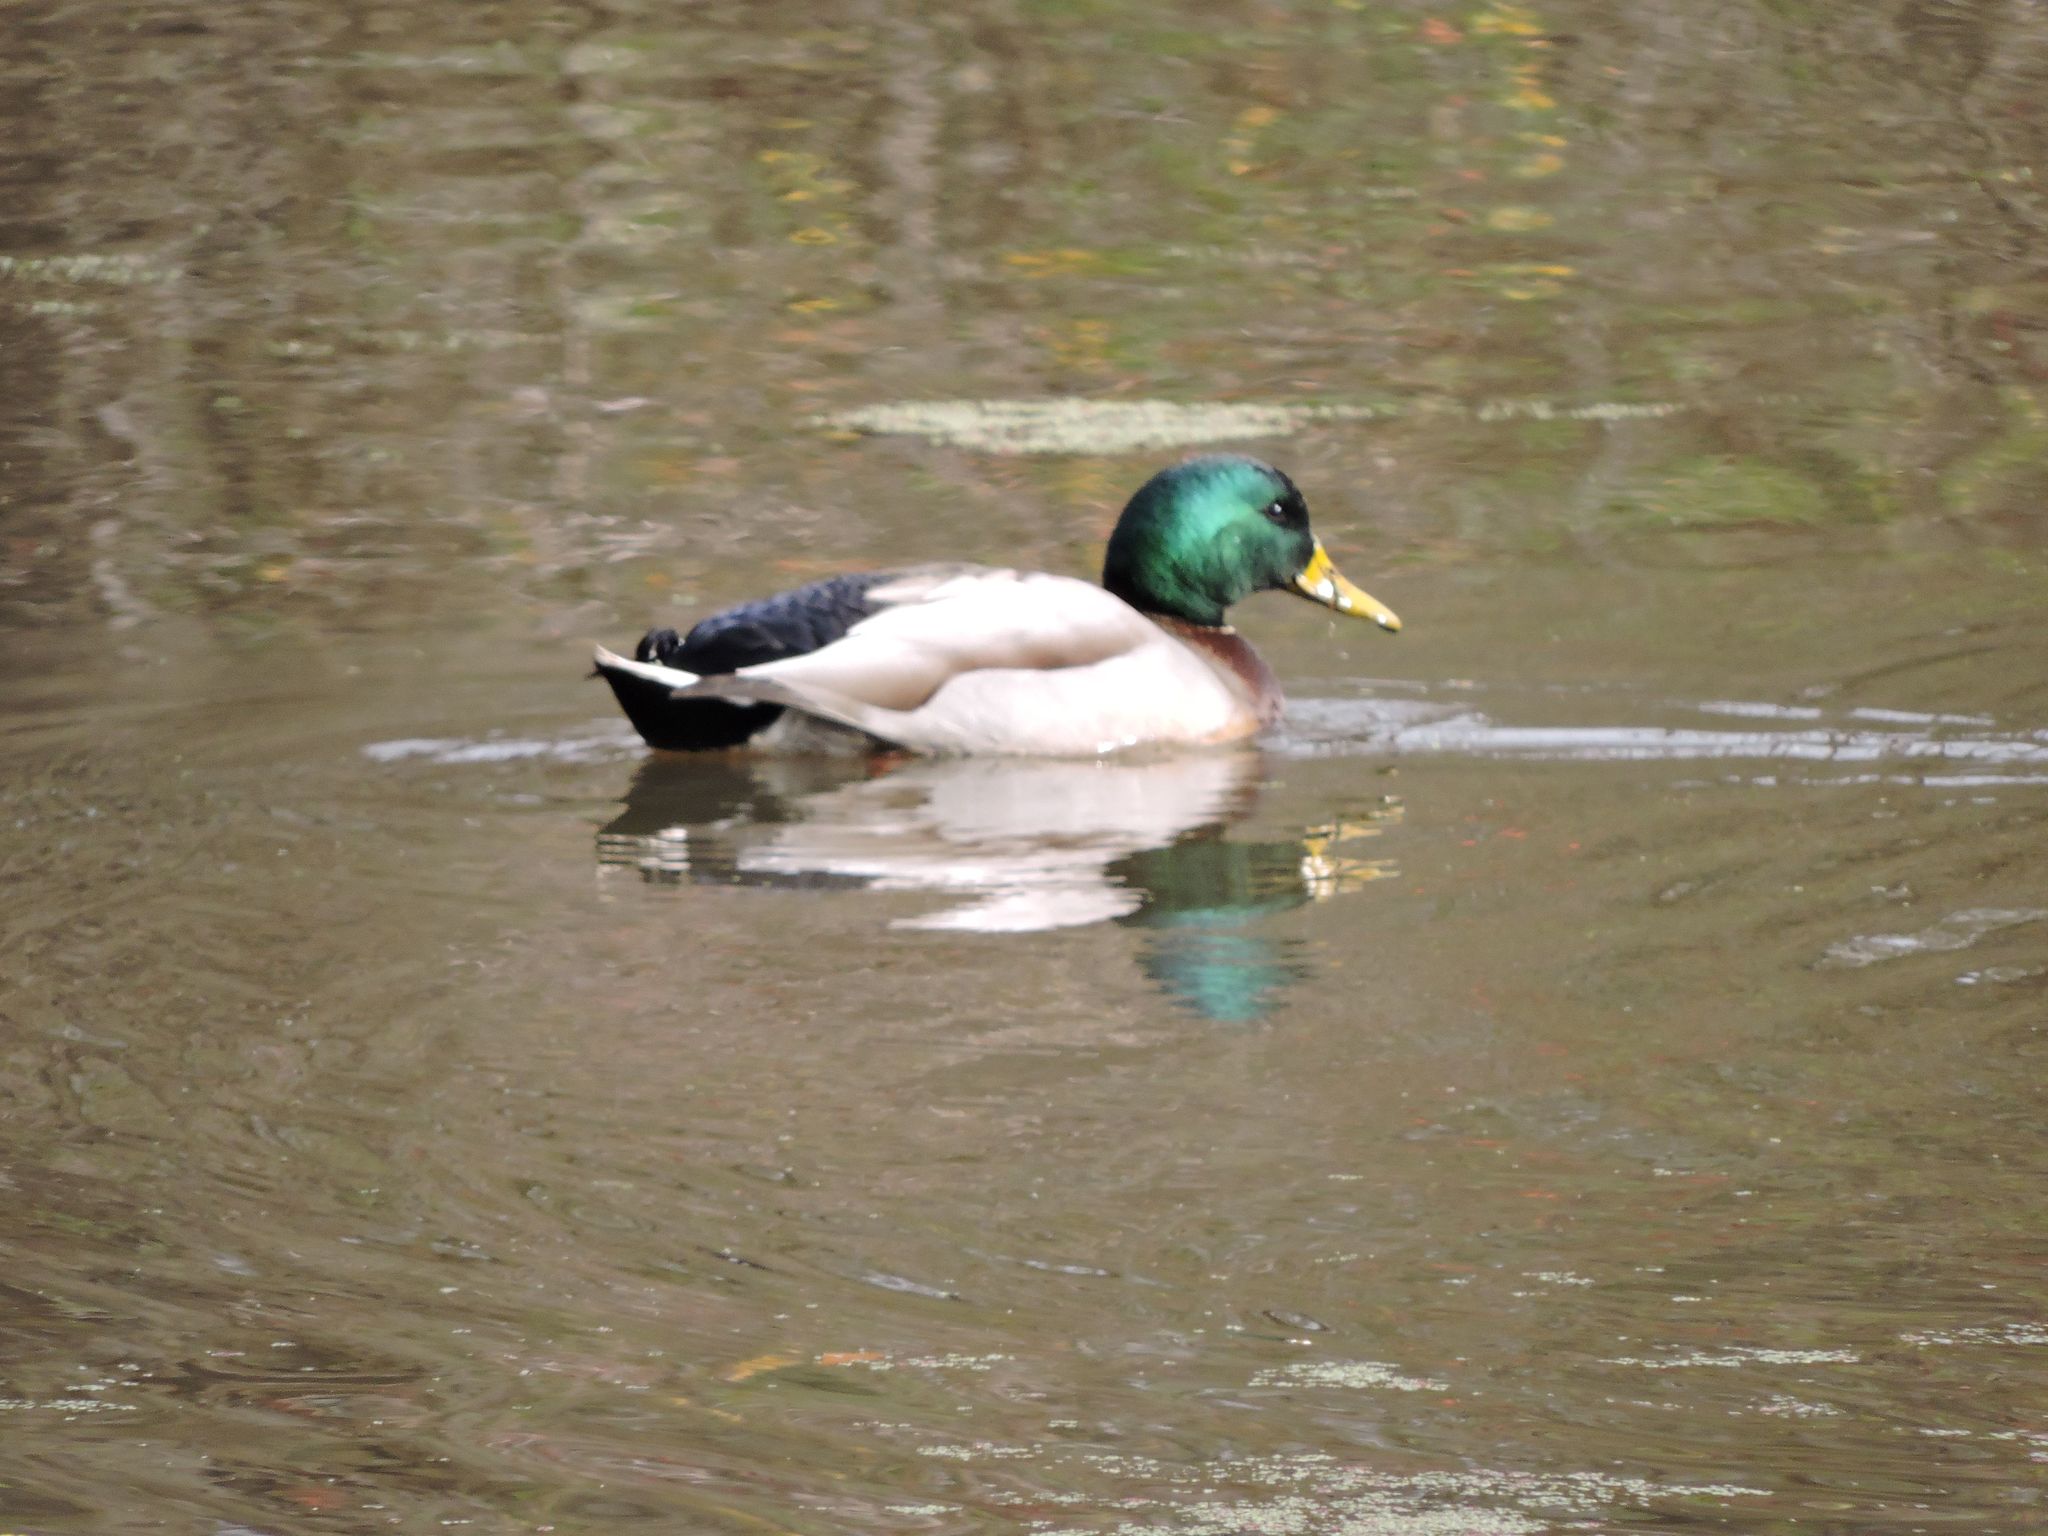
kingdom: Animalia
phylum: Chordata
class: Aves
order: Anseriformes
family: Anatidae
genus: Anas
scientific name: Anas platyrhynchos
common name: Mallard
